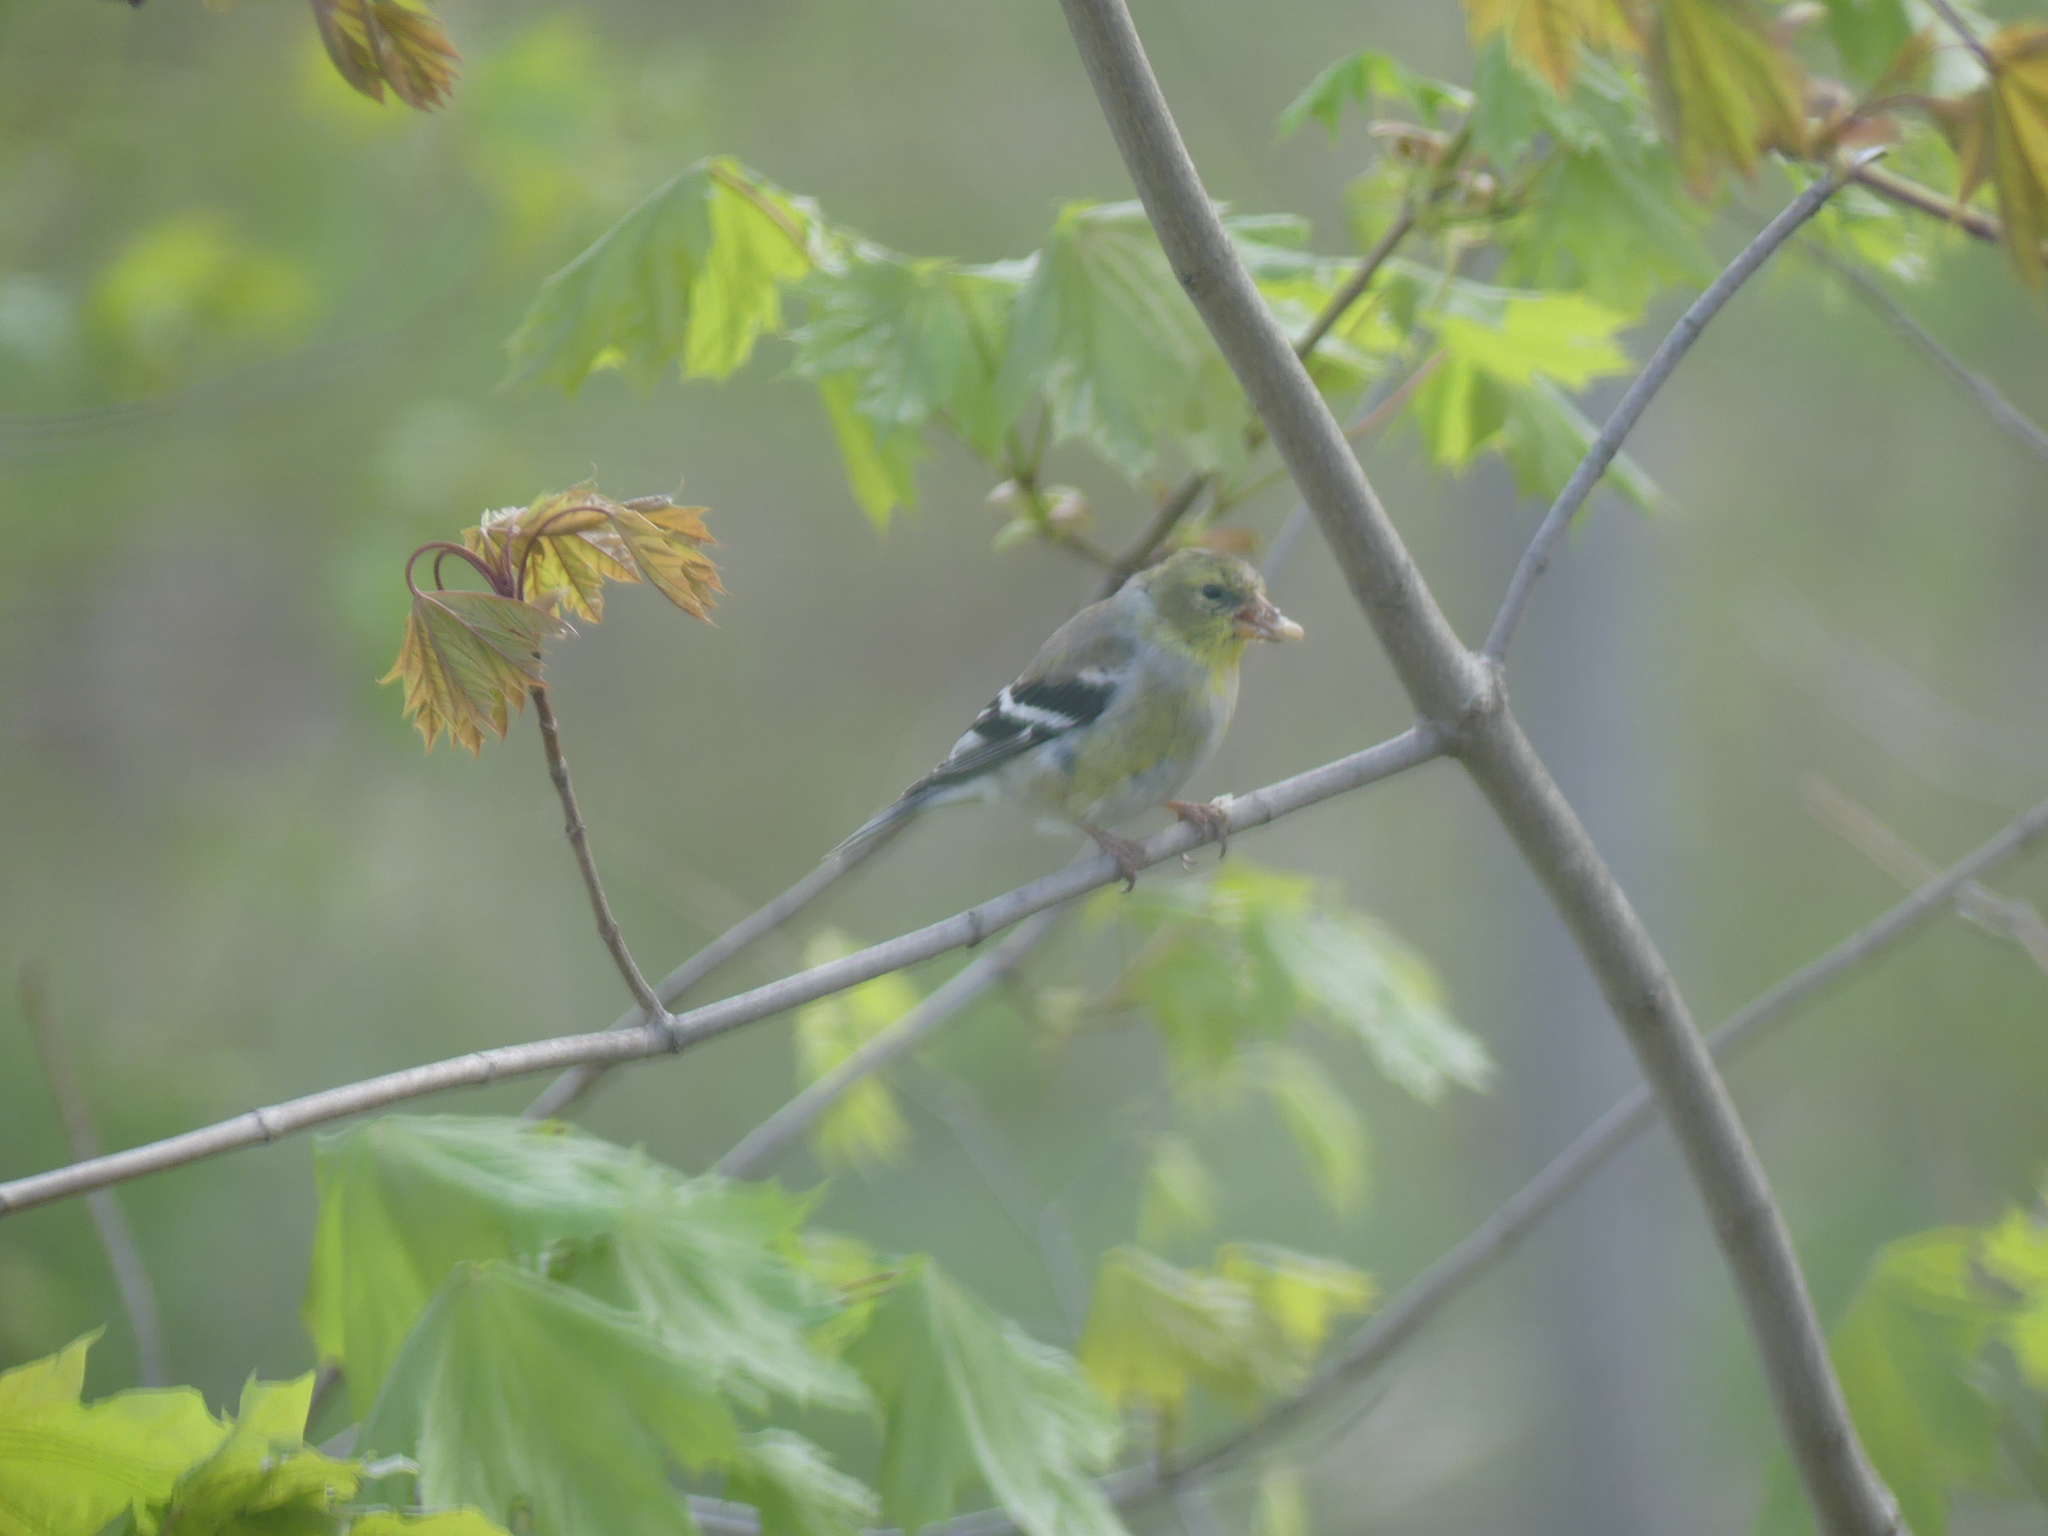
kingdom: Animalia
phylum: Chordata
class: Aves
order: Passeriformes
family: Fringillidae
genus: Spinus
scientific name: Spinus tristis
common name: American goldfinch
